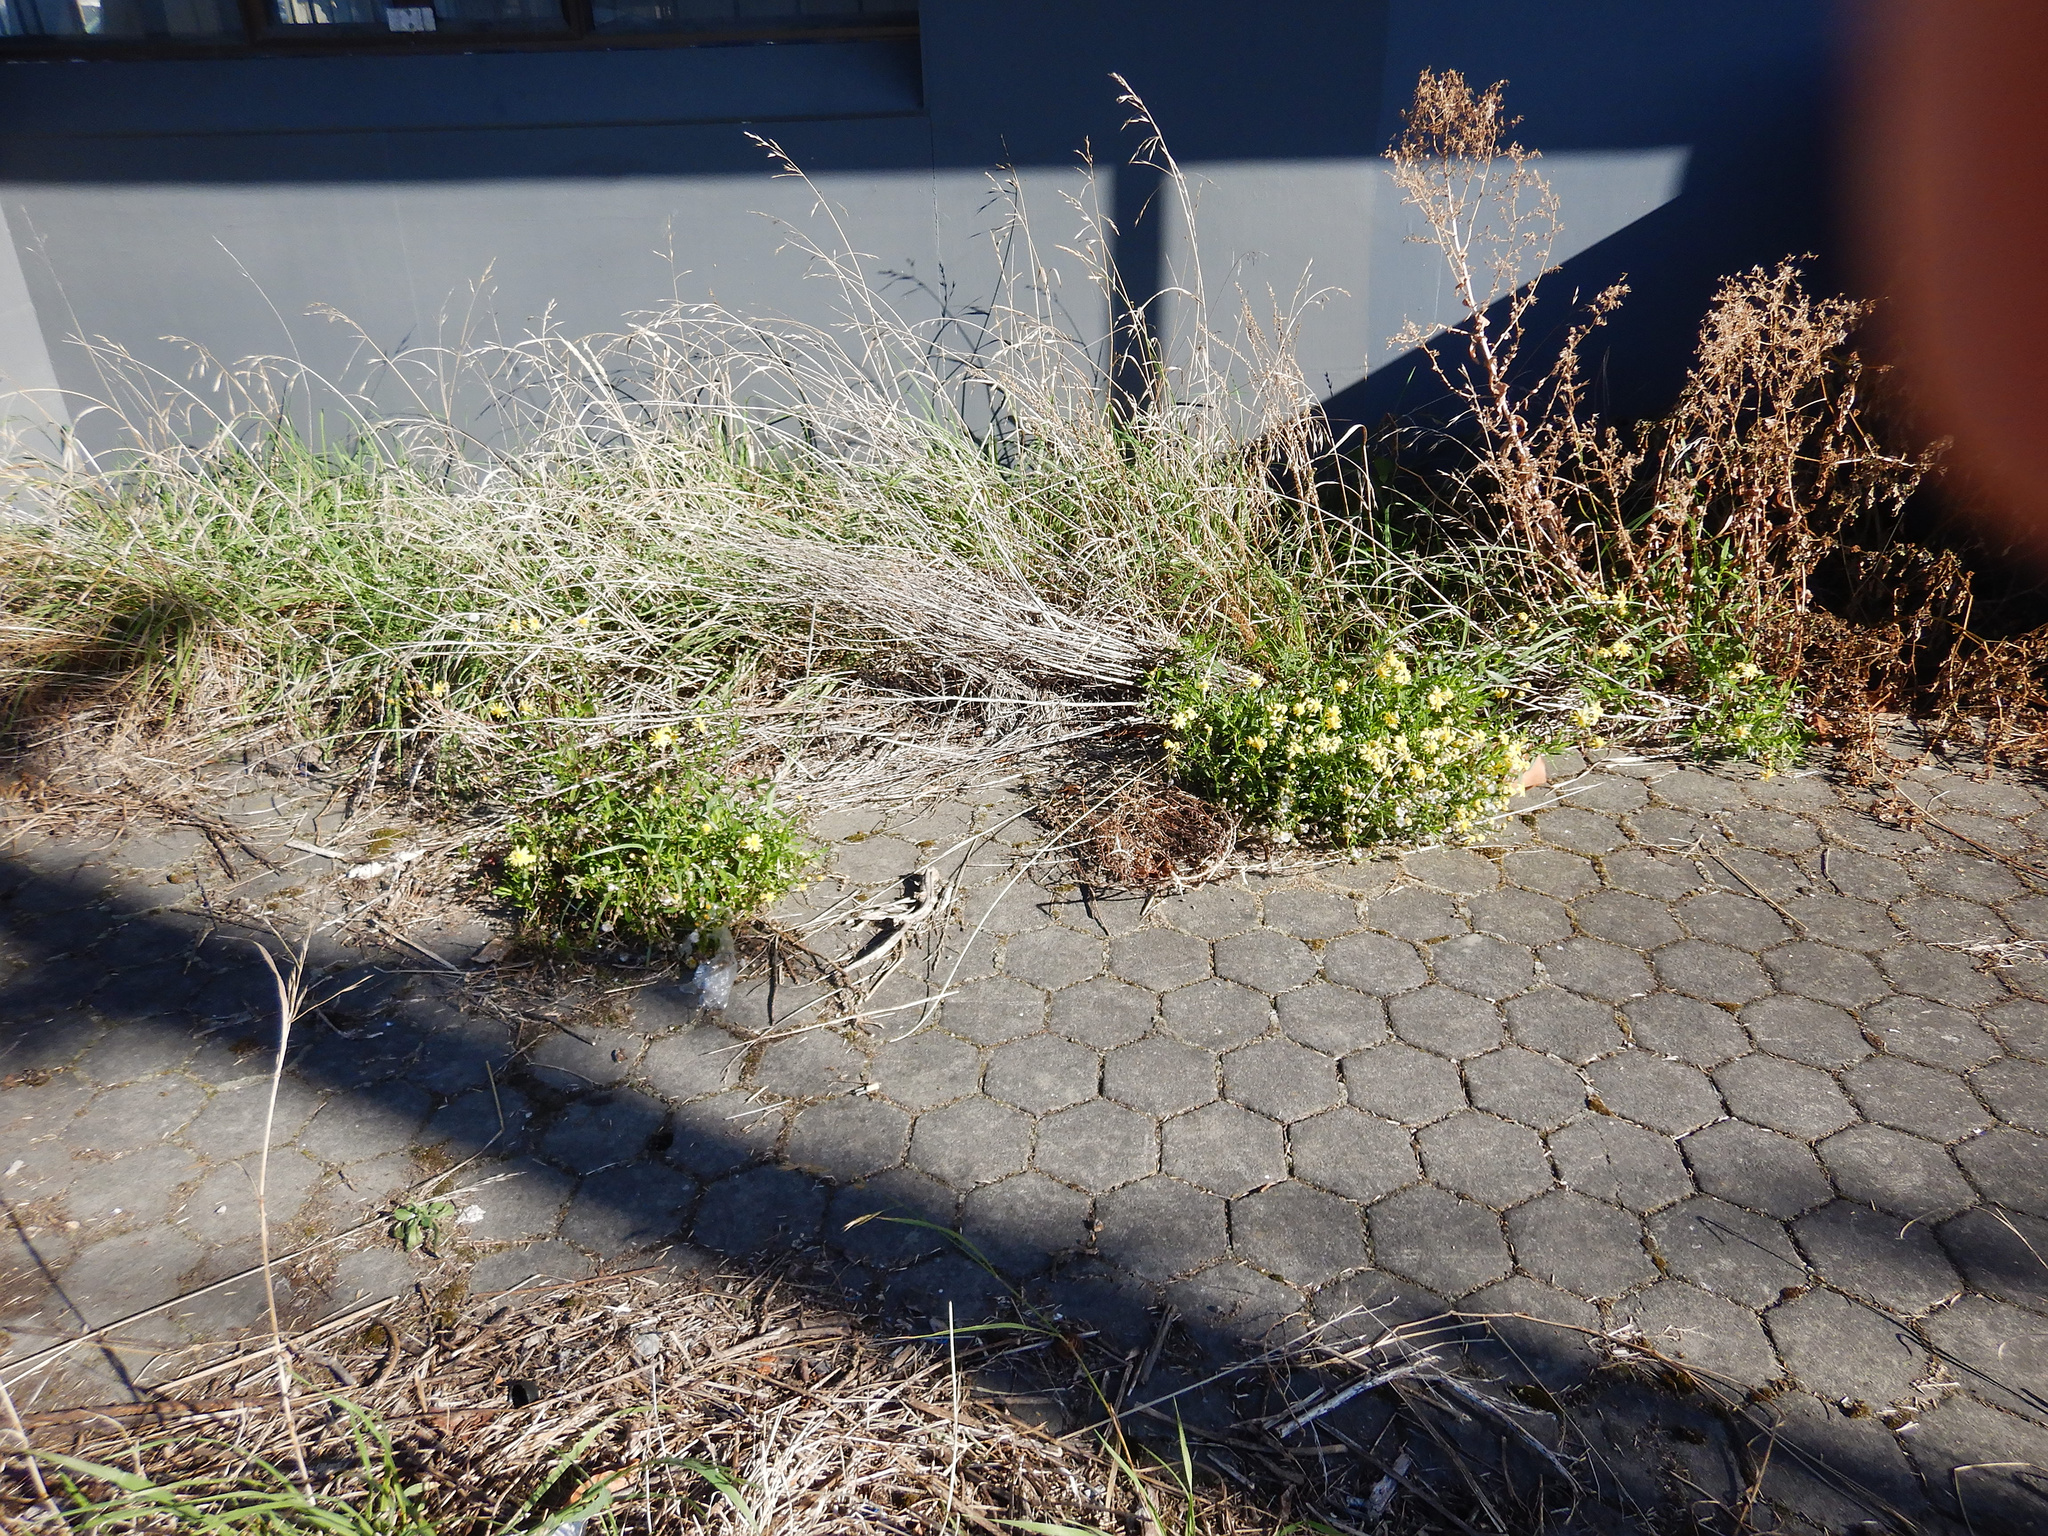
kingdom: Plantae
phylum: Tracheophyta
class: Magnoliopsida
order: Asterales
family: Asteraceae
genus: Senecio
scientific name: Senecio skirrhodon
